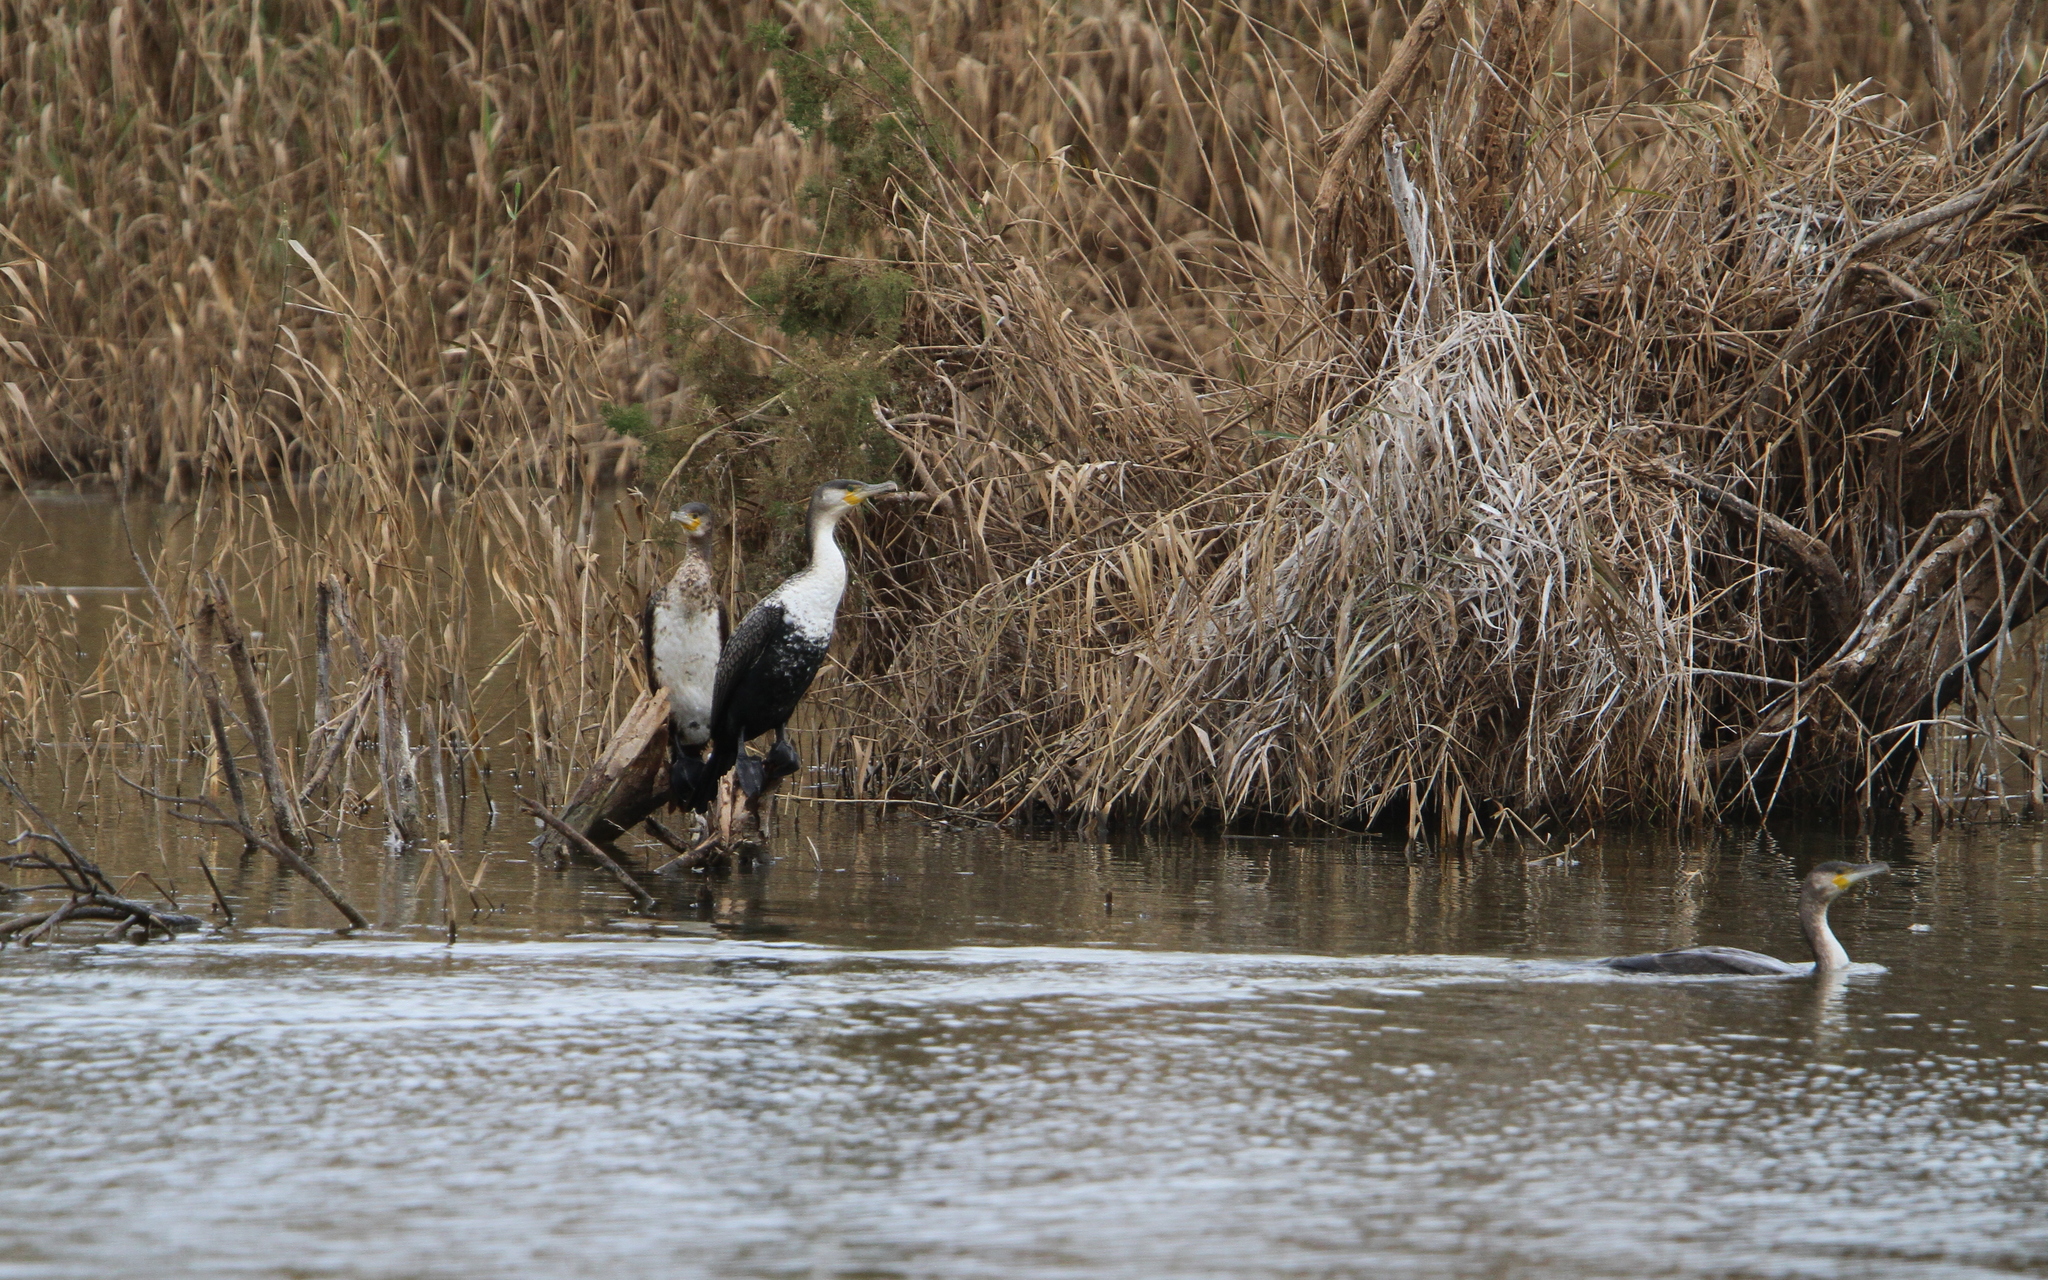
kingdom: Animalia
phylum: Chordata
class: Aves
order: Suliformes
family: Phalacrocoracidae
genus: Phalacrocorax
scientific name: Phalacrocorax carbo
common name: Great cormorant
